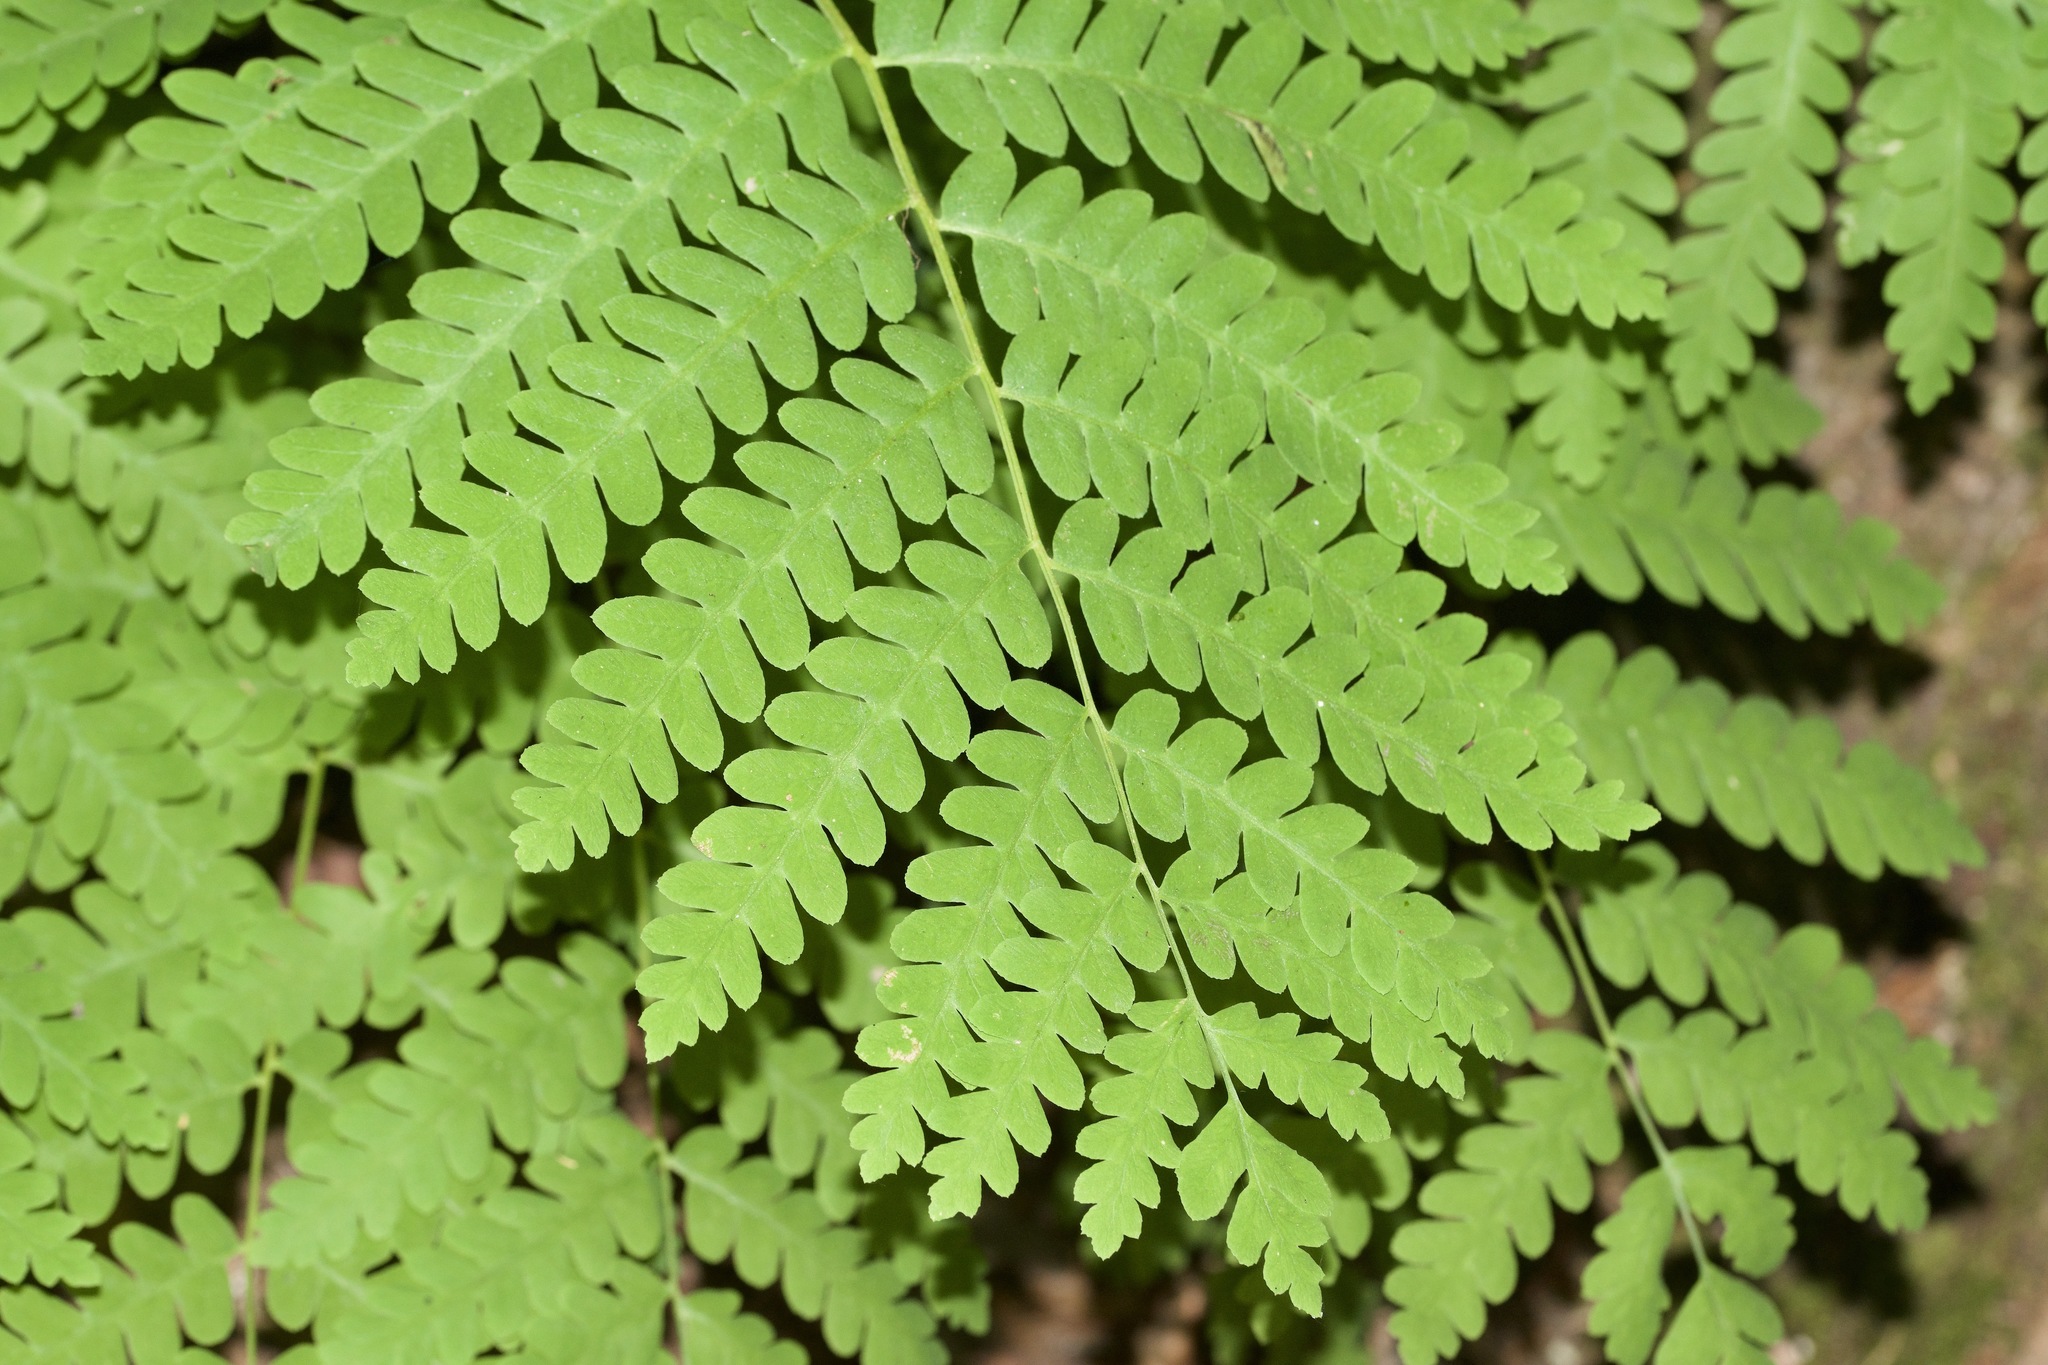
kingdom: Plantae
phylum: Tracheophyta
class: Polypodiopsida
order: Osmundales
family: Osmundaceae
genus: Claytosmunda
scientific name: Claytosmunda claytoniana
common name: Clayton's fern
